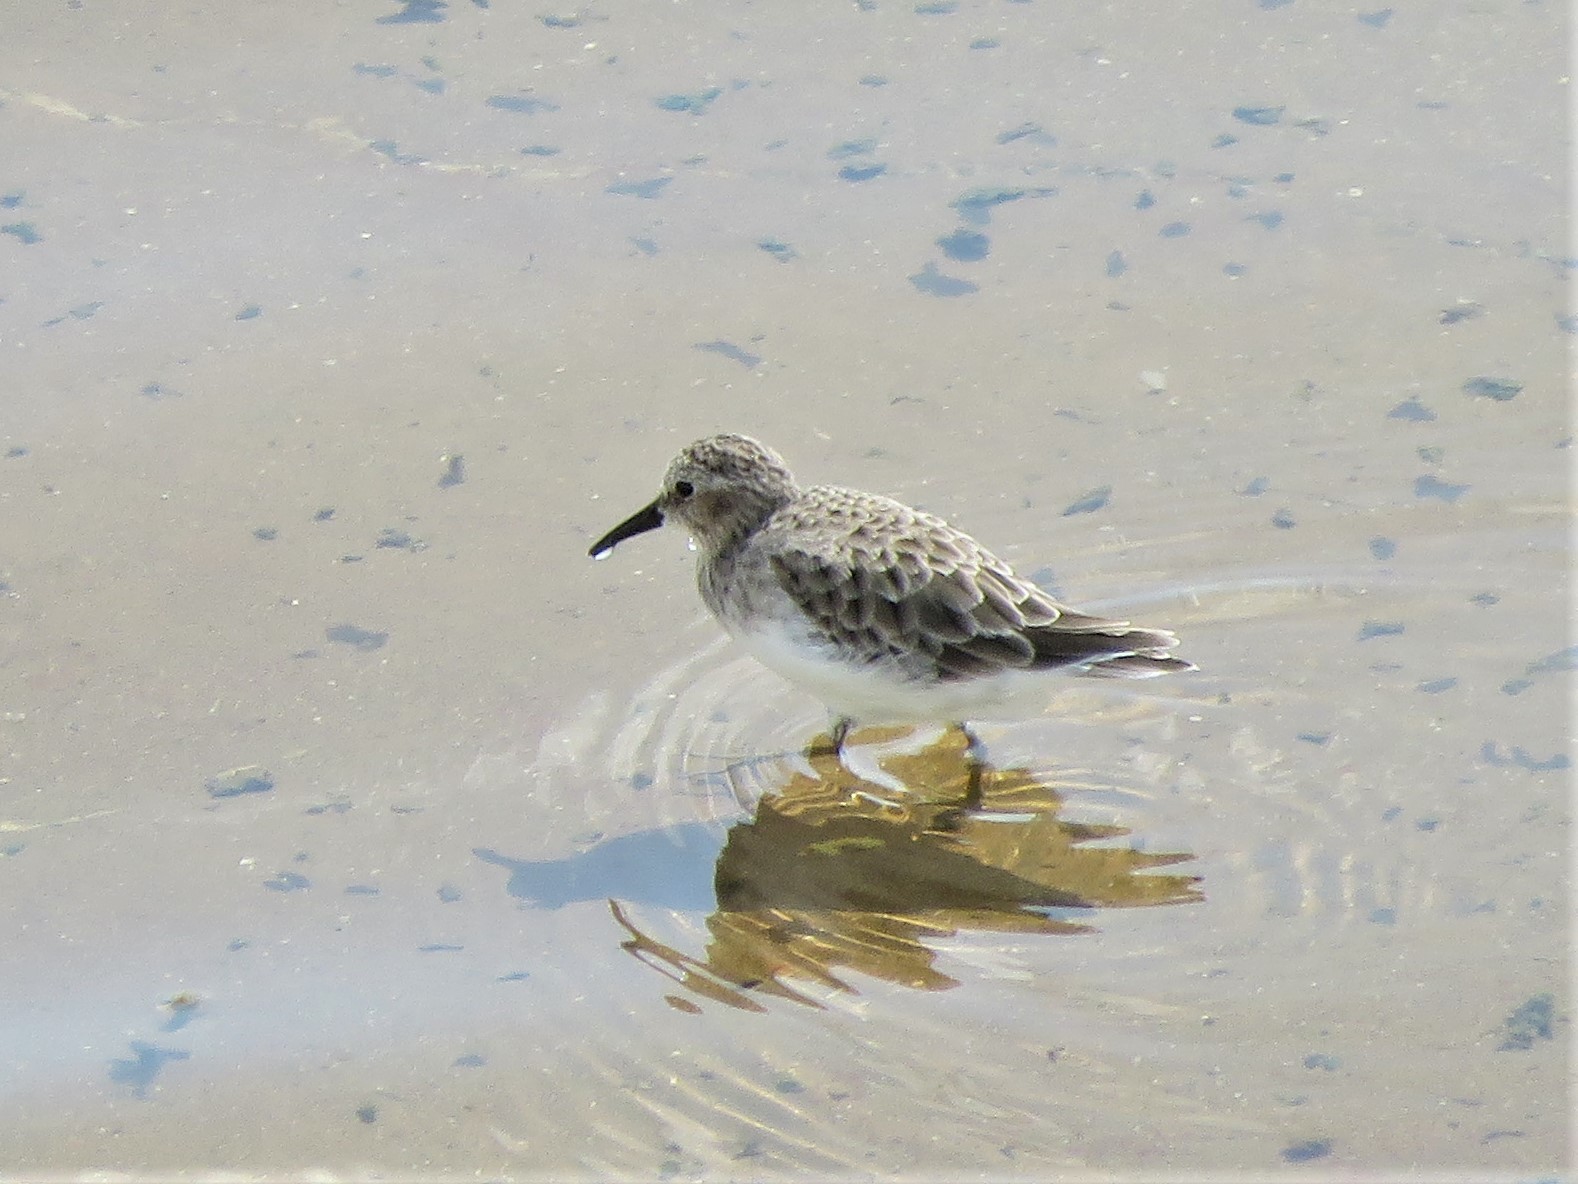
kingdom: Animalia
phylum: Chordata
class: Aves
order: Charadriiformes
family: Scolopacidae
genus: Calidris
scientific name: Calidris minutilla
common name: Least sandpiper
